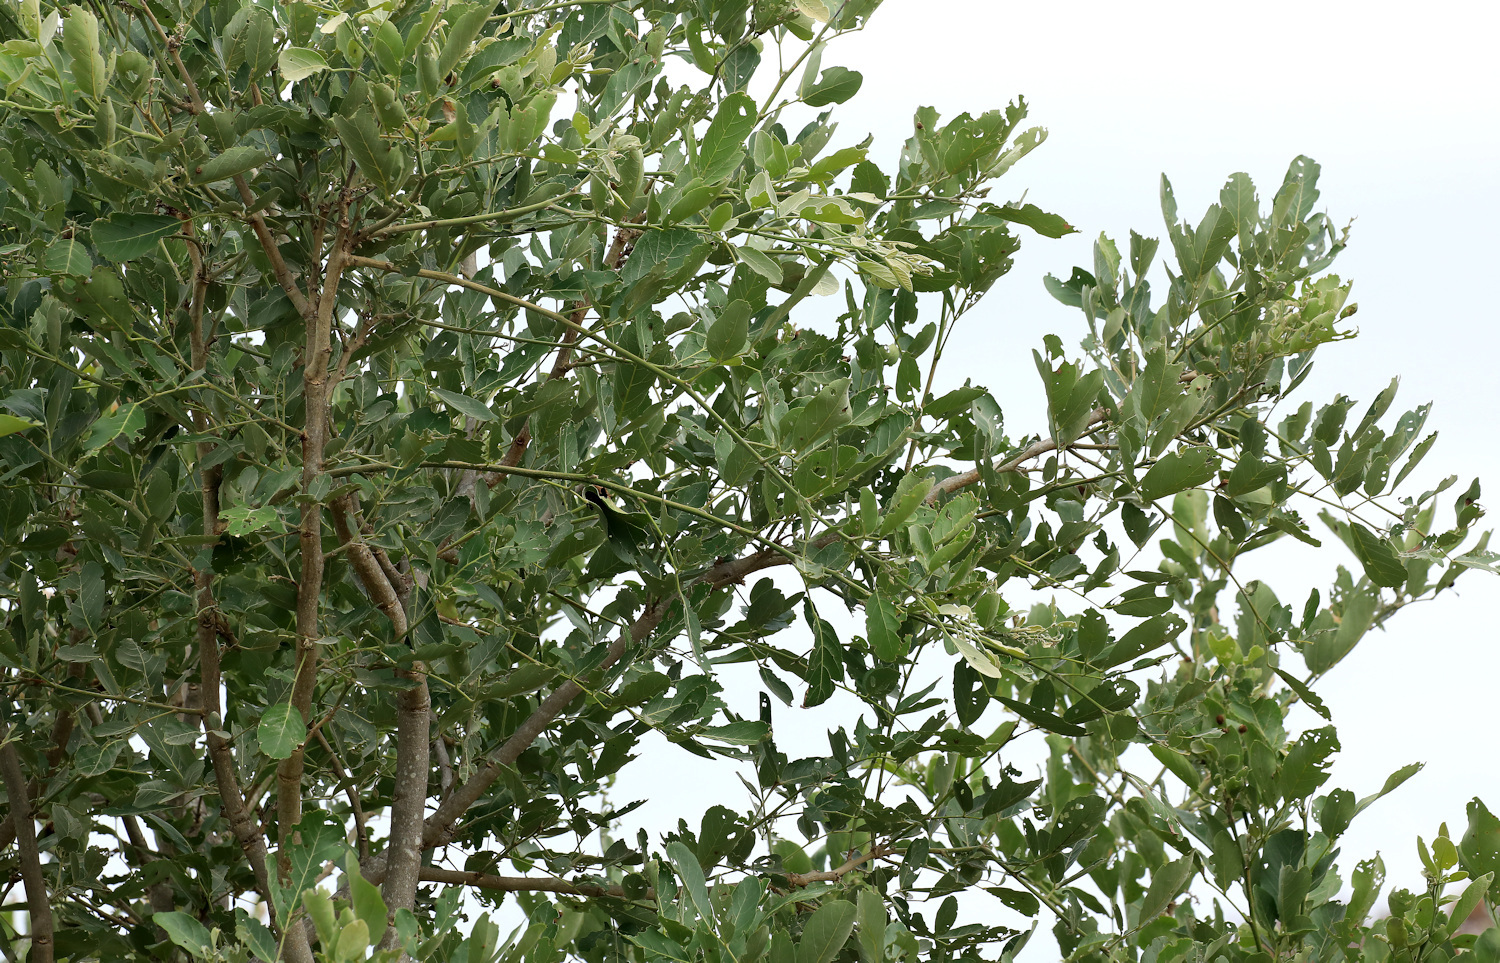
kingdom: Plantae
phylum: Tracheophyta
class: Magnoliopsida
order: Fabales
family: Fabaceae
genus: Philenoptera
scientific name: Philenoptera violacea
